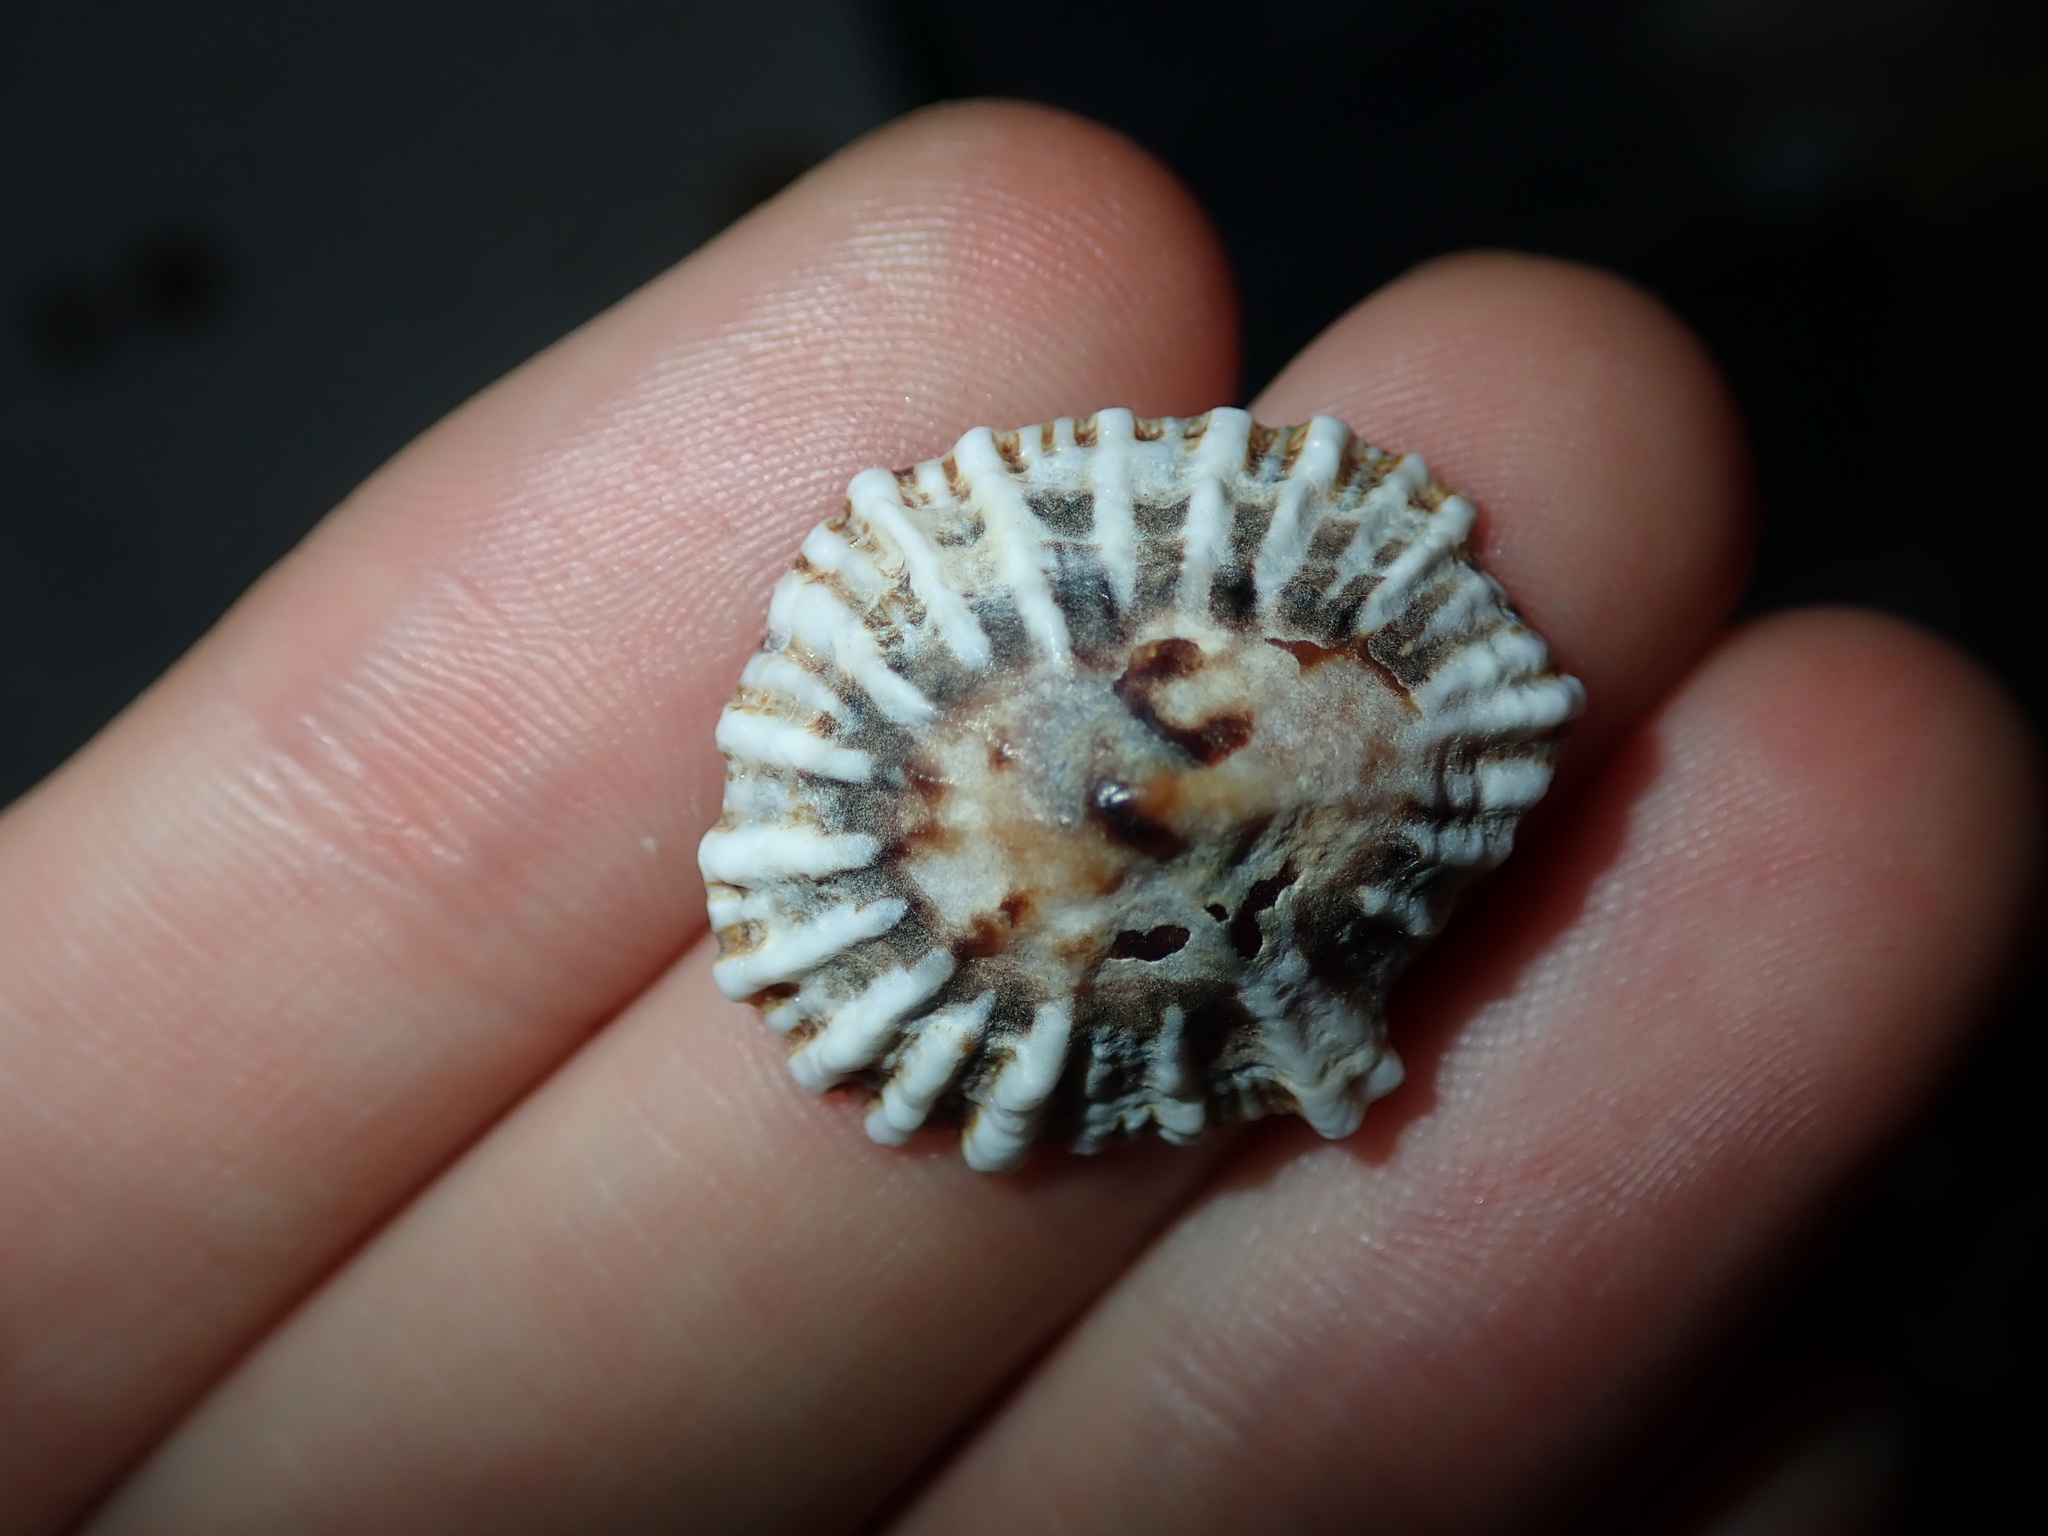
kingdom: Animalia
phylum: Mollusca
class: Gastropoda
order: Siphonariida
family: Siphonariidae
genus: Siphonaria
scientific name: Siphonaria denticulata
